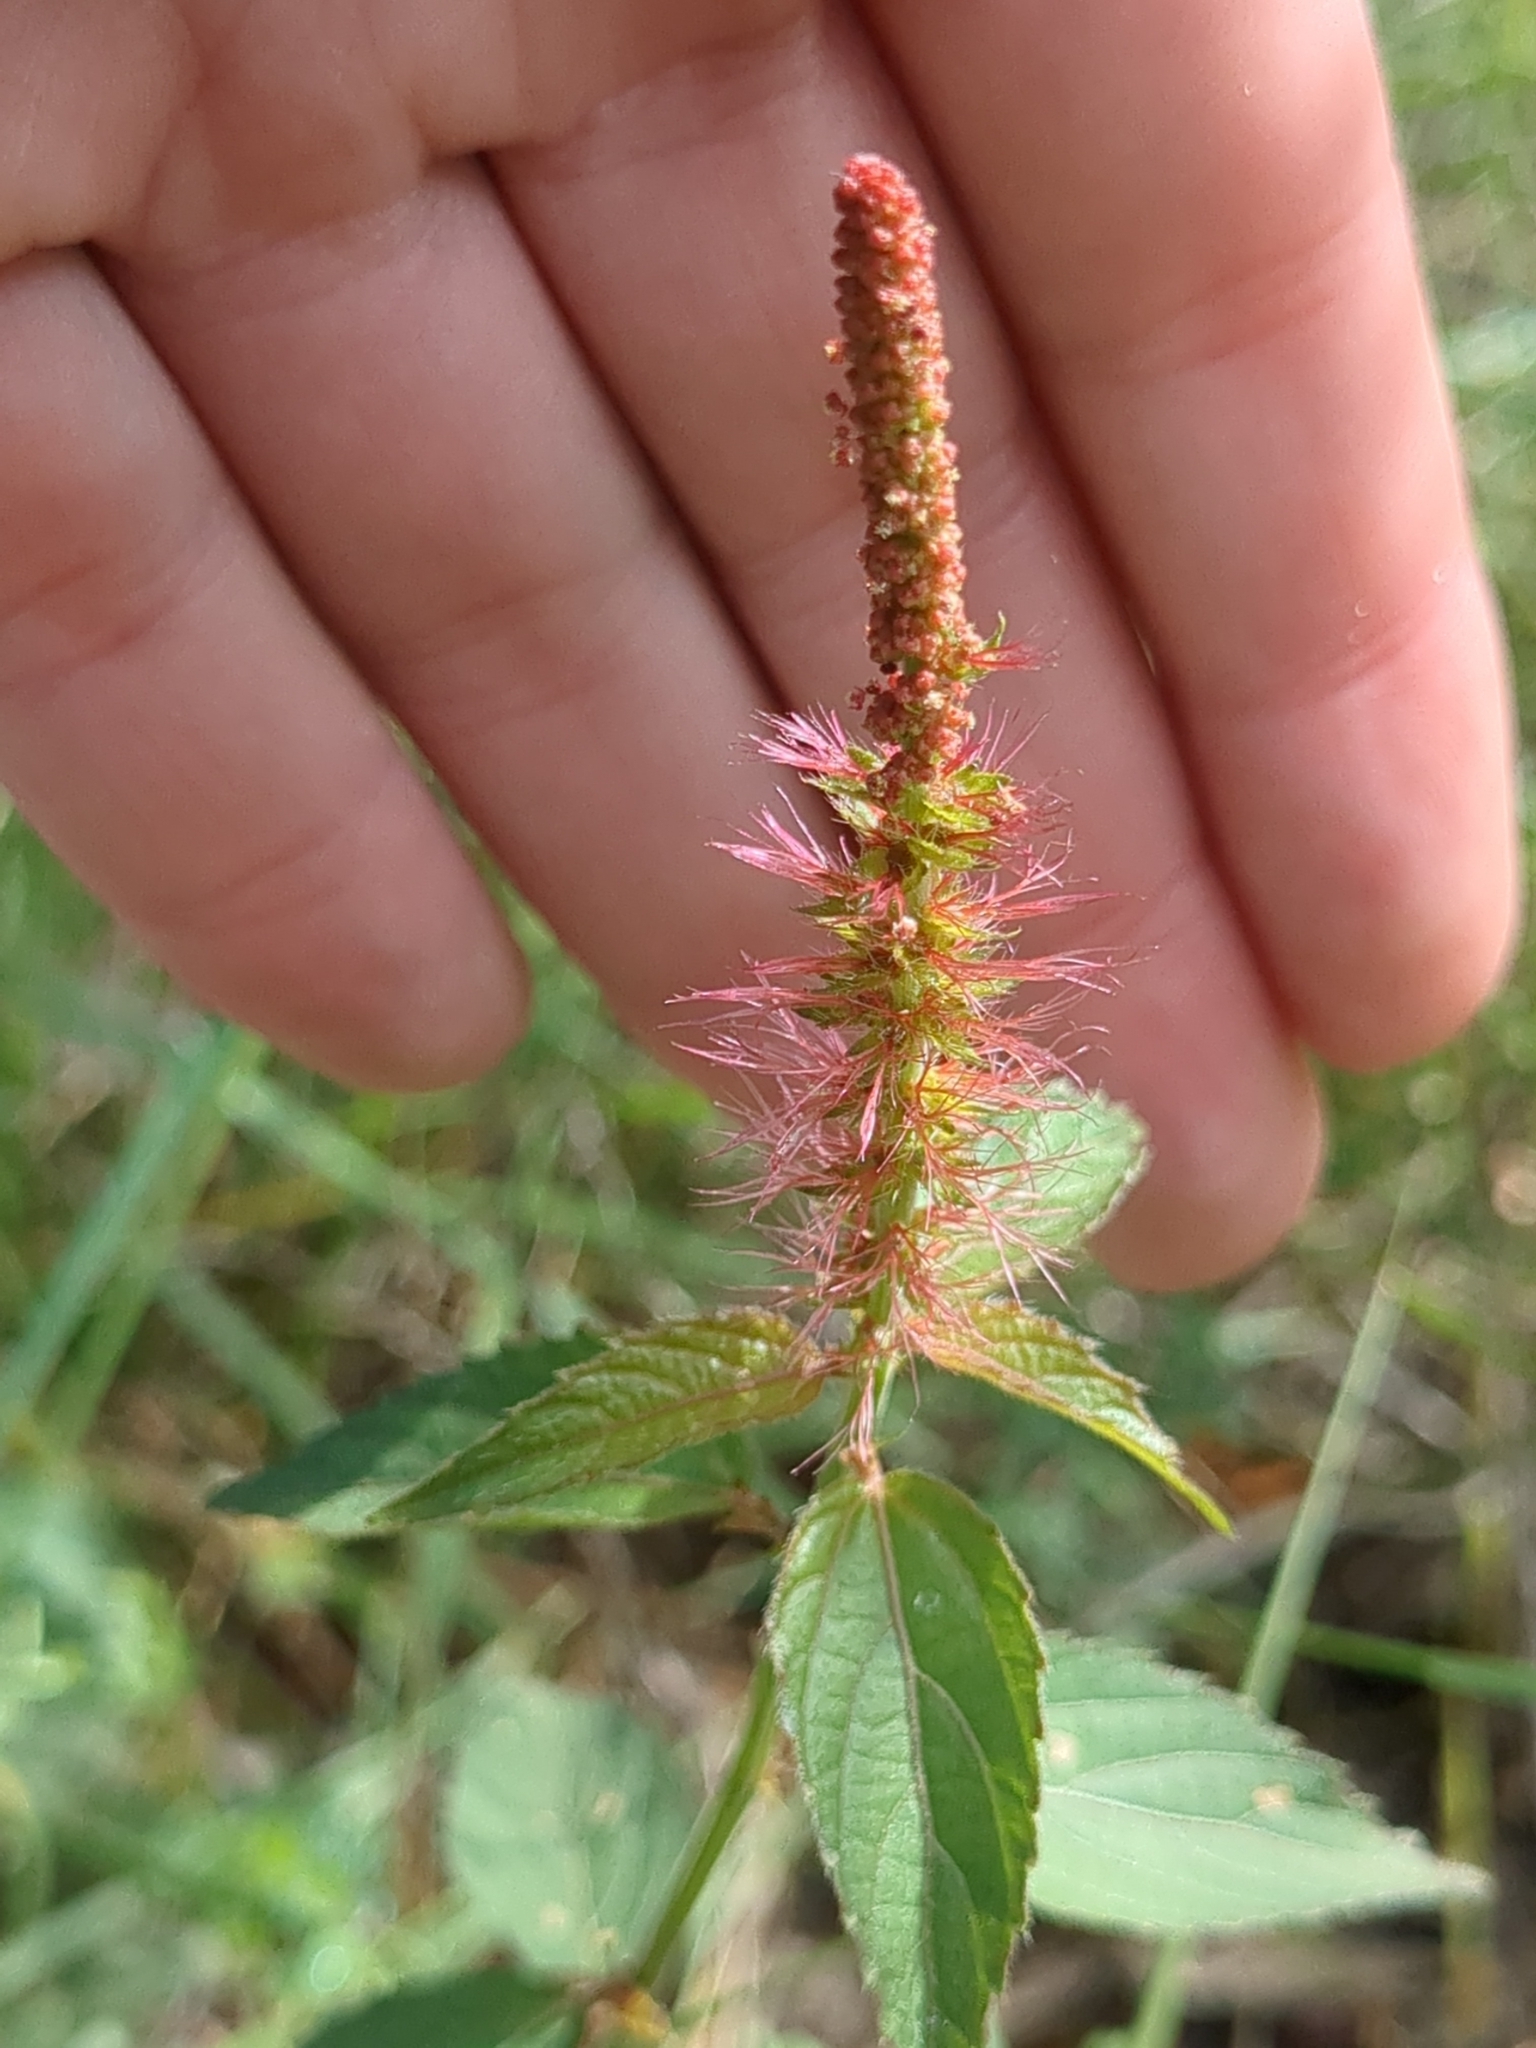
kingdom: Plantae
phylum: Tracheophyta
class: Magnoliopsida
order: Malpighiales
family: Euphorbiaceae
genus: Acalypha
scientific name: Acalypha phleoides
